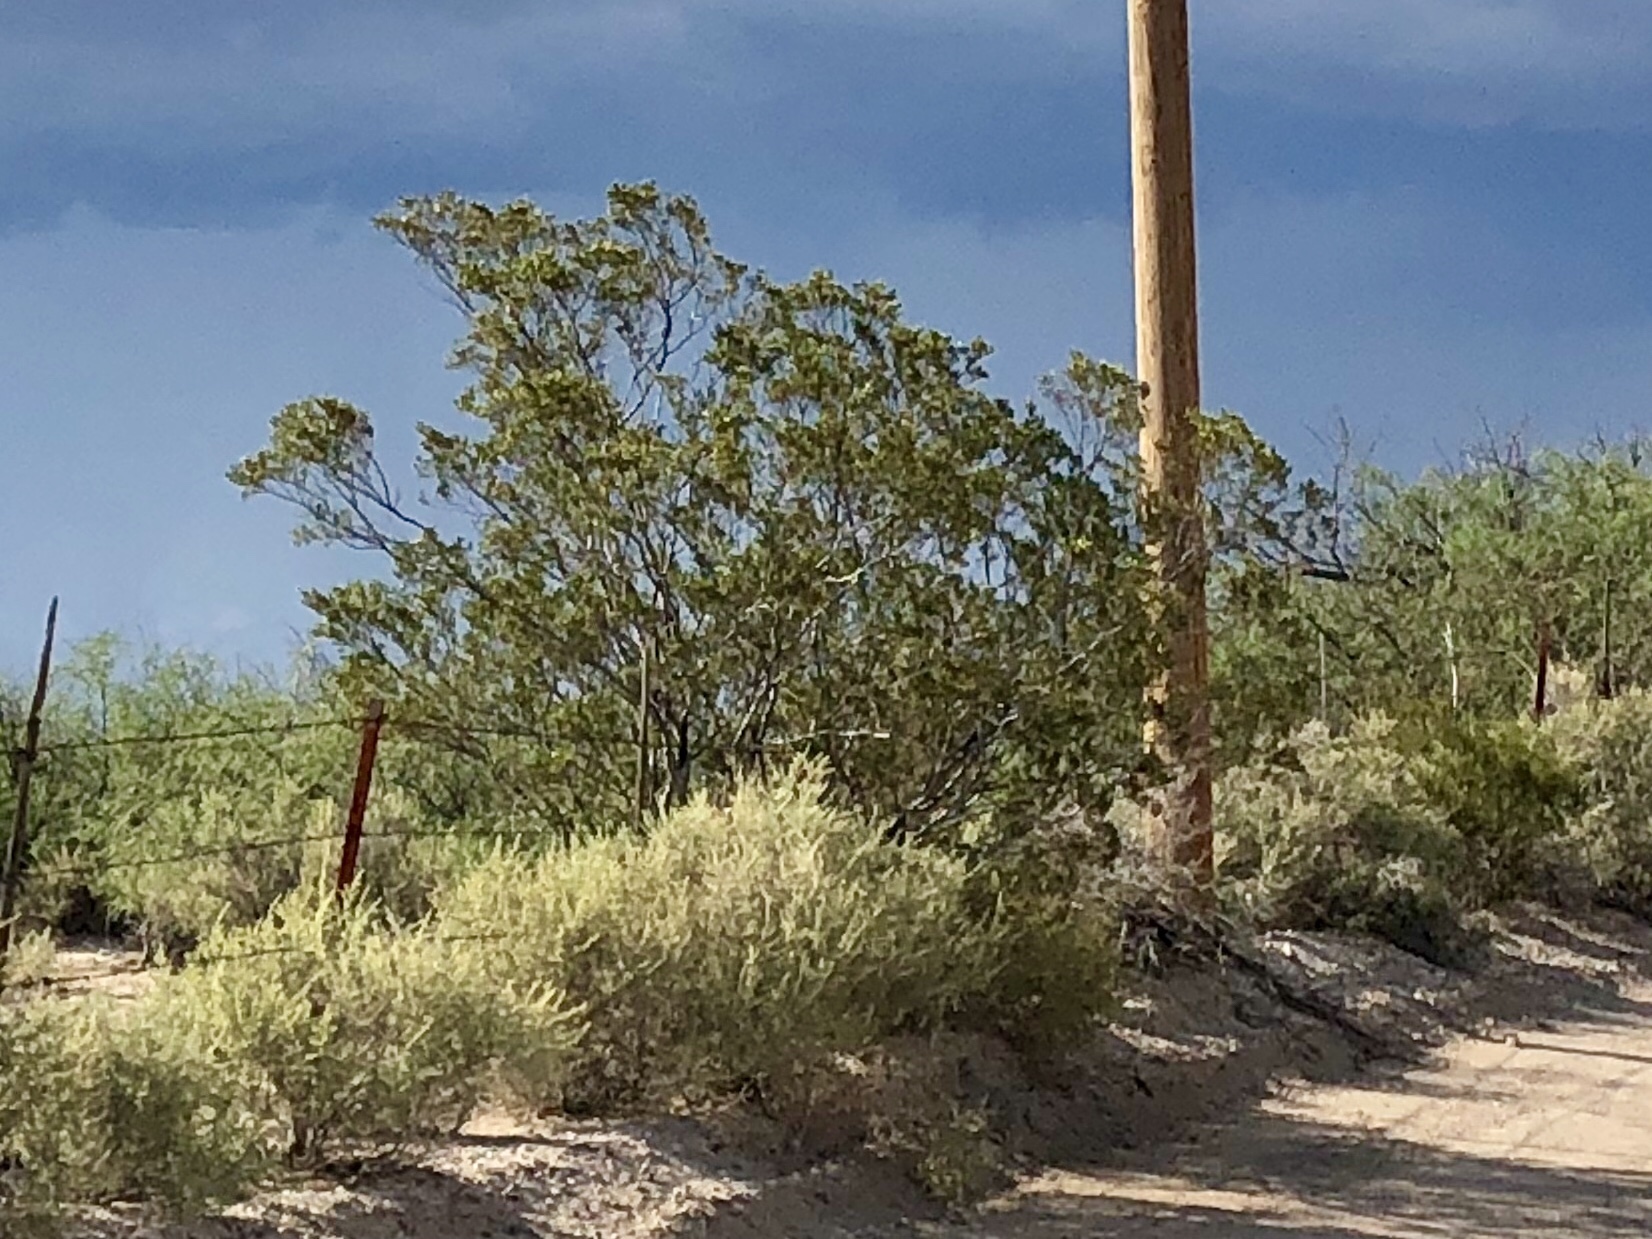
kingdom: Plantae
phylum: Tracheophyta
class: Magnoliopsida
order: Zygophyllales
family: Zygophyllaceae
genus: Larrea
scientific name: Larrea tridentata
